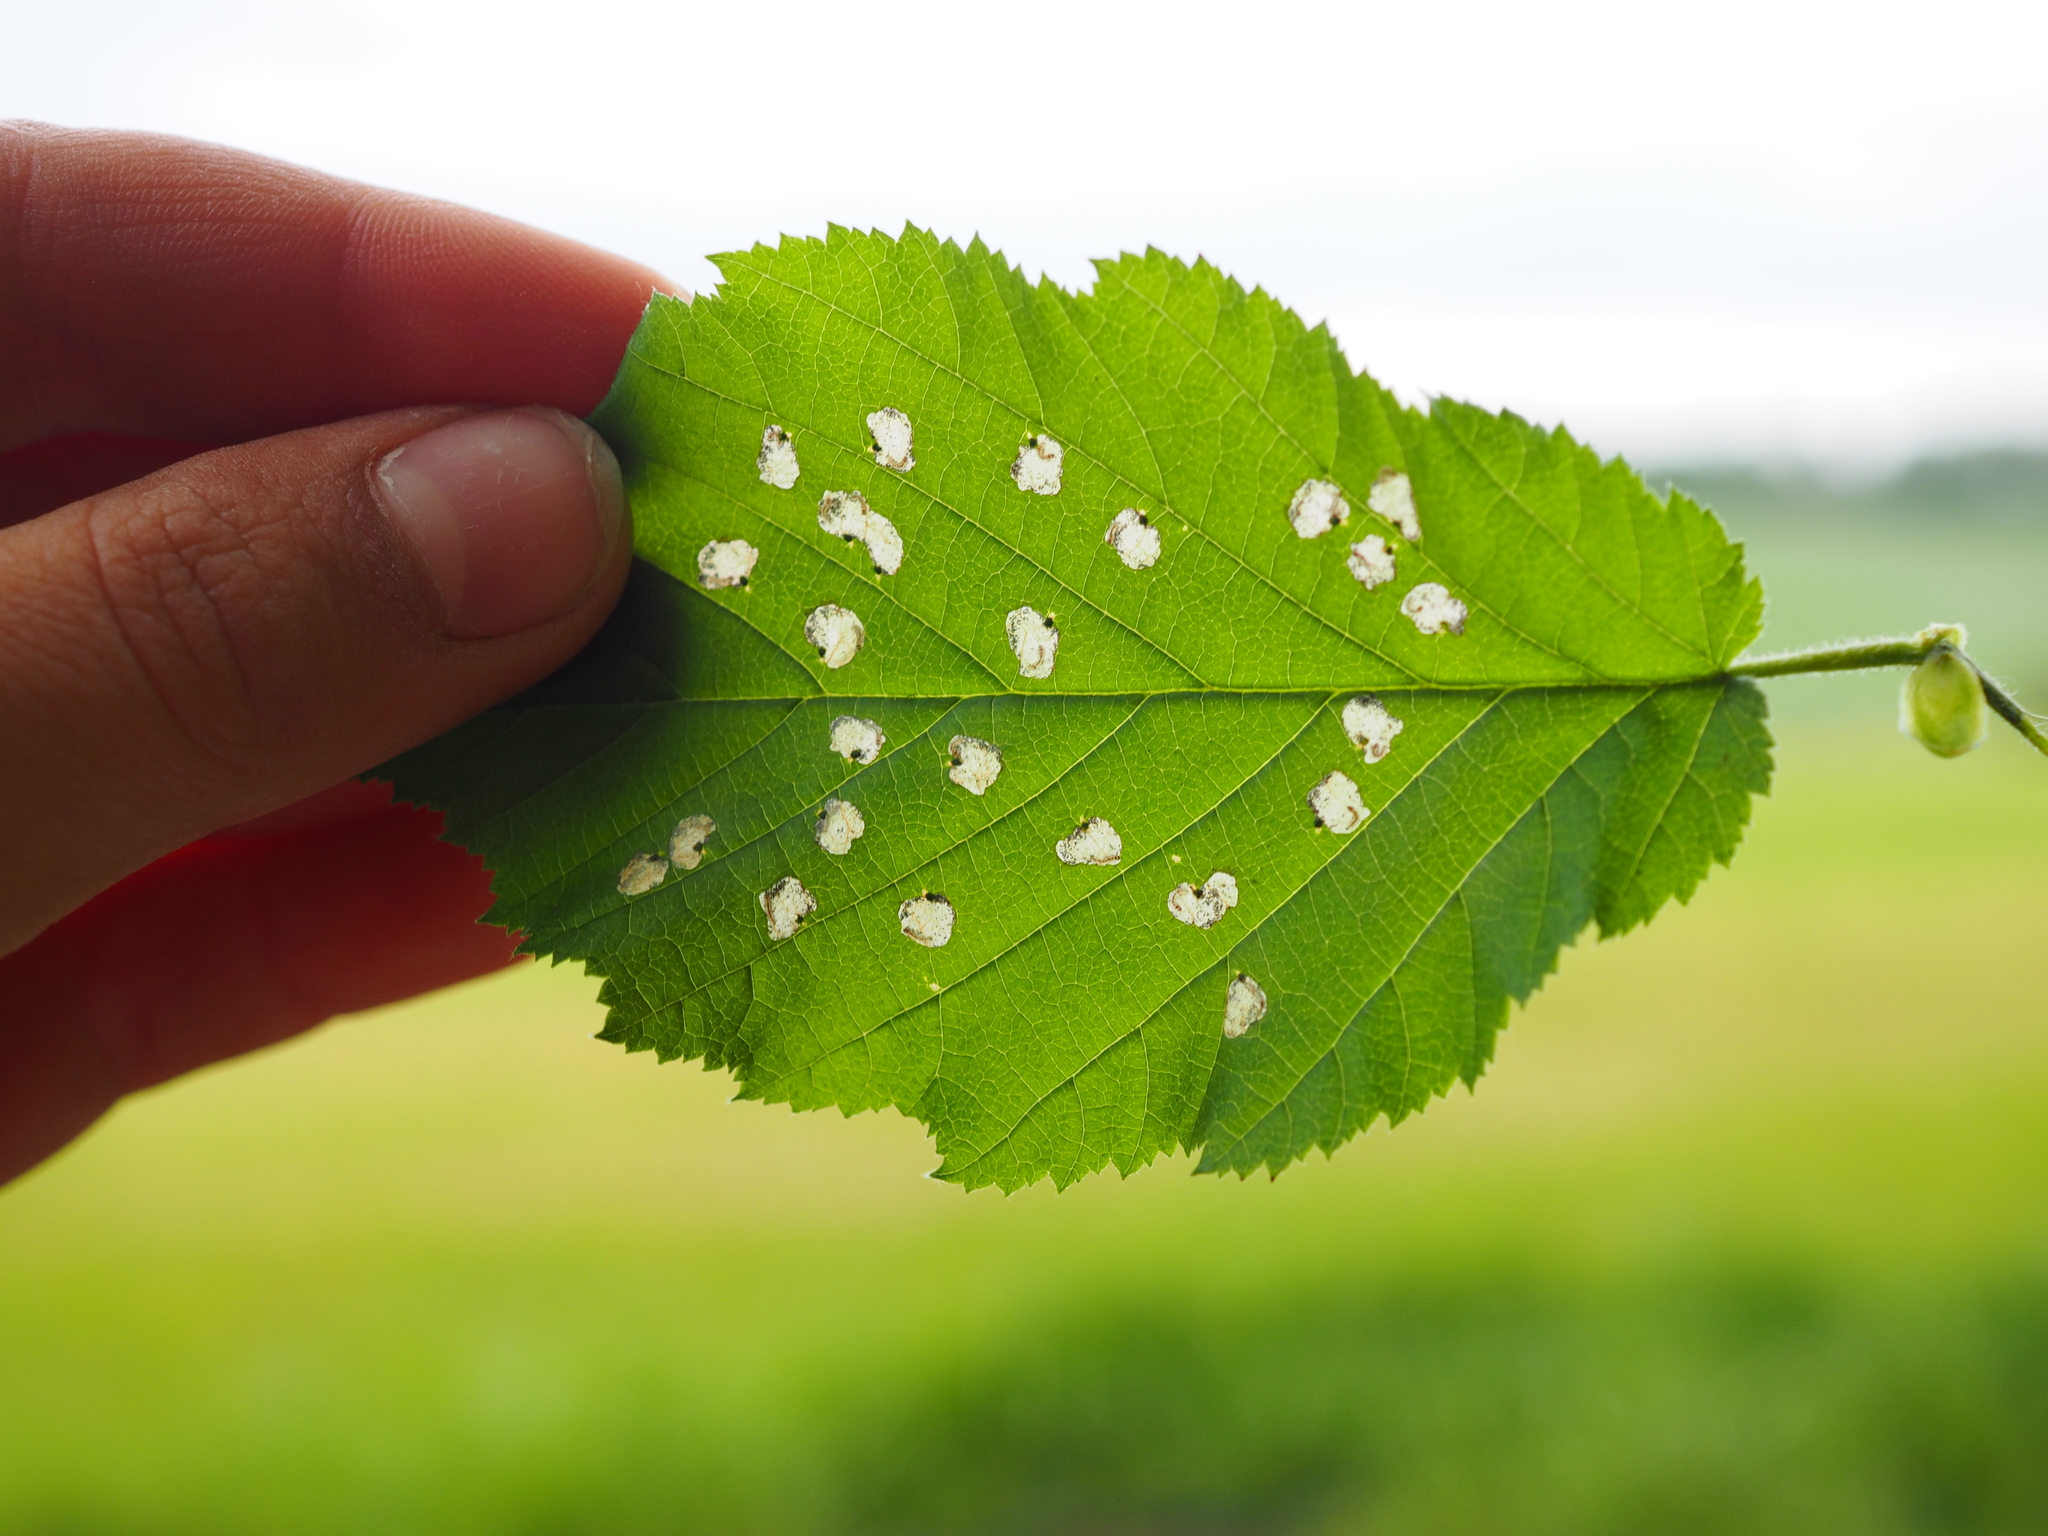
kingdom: Animalia
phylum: Arthropoda
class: Insecta
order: Lepidoptera
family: Incurvariidae
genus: Incurvaria
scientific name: Incurvaria pectinea
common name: Pale feathered leaf-cutter
